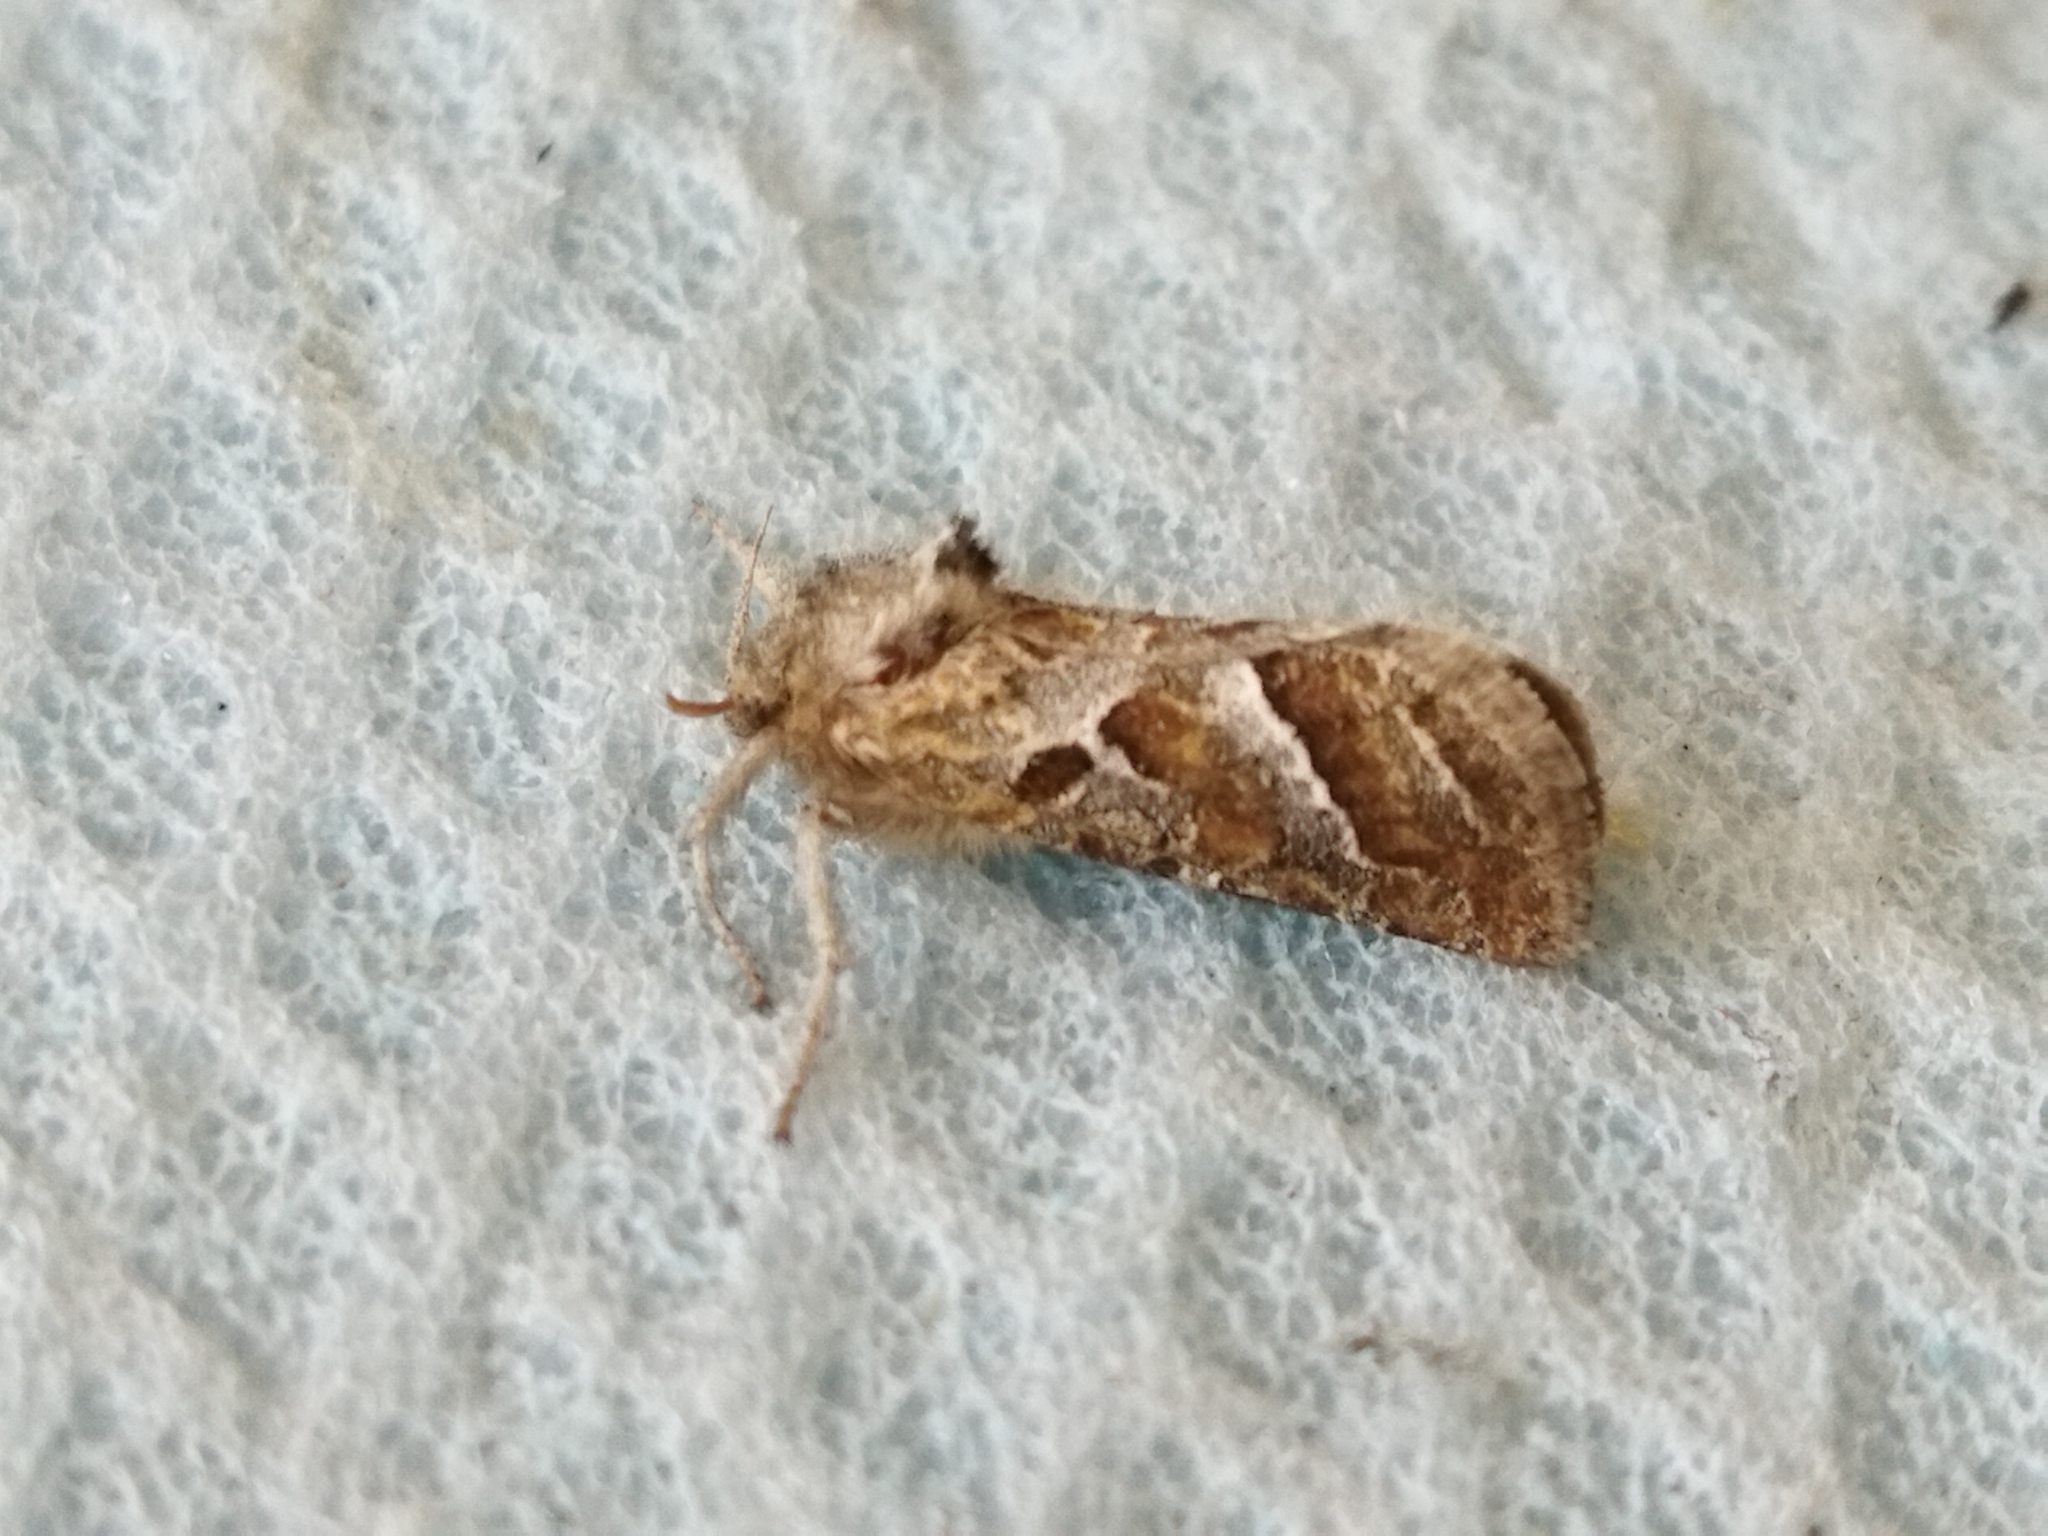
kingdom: Animalia
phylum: Arthropoda
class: Insecta
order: Lepidoptera
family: Hepialidae
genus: Triodia
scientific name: Triodia amasinus
